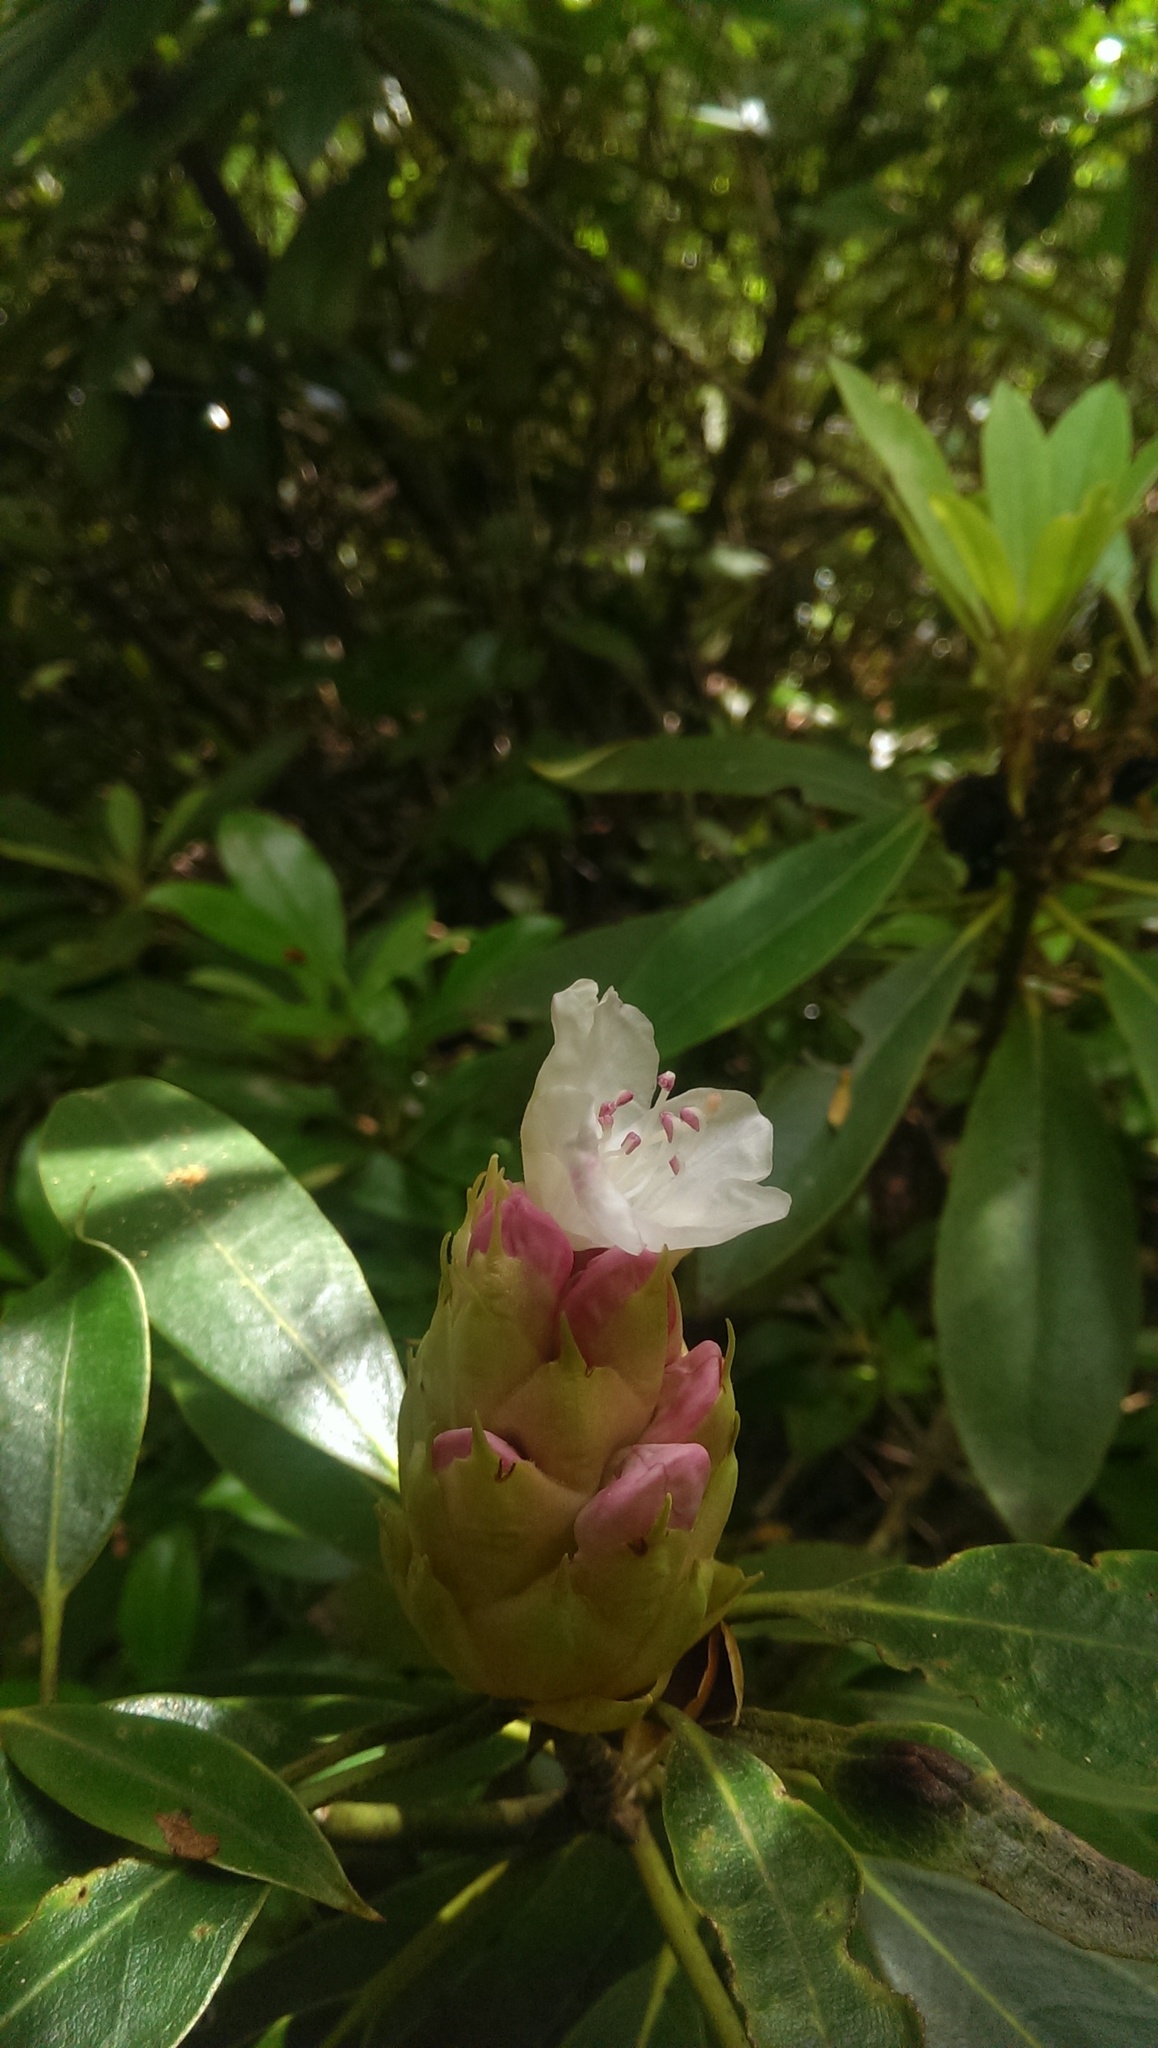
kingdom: Plantae
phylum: Tracheophyta
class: Magnoliopsida
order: Ericales
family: Ericaceae
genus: Rhododendron
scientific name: Rhododendron maximum
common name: Great rhododendron
